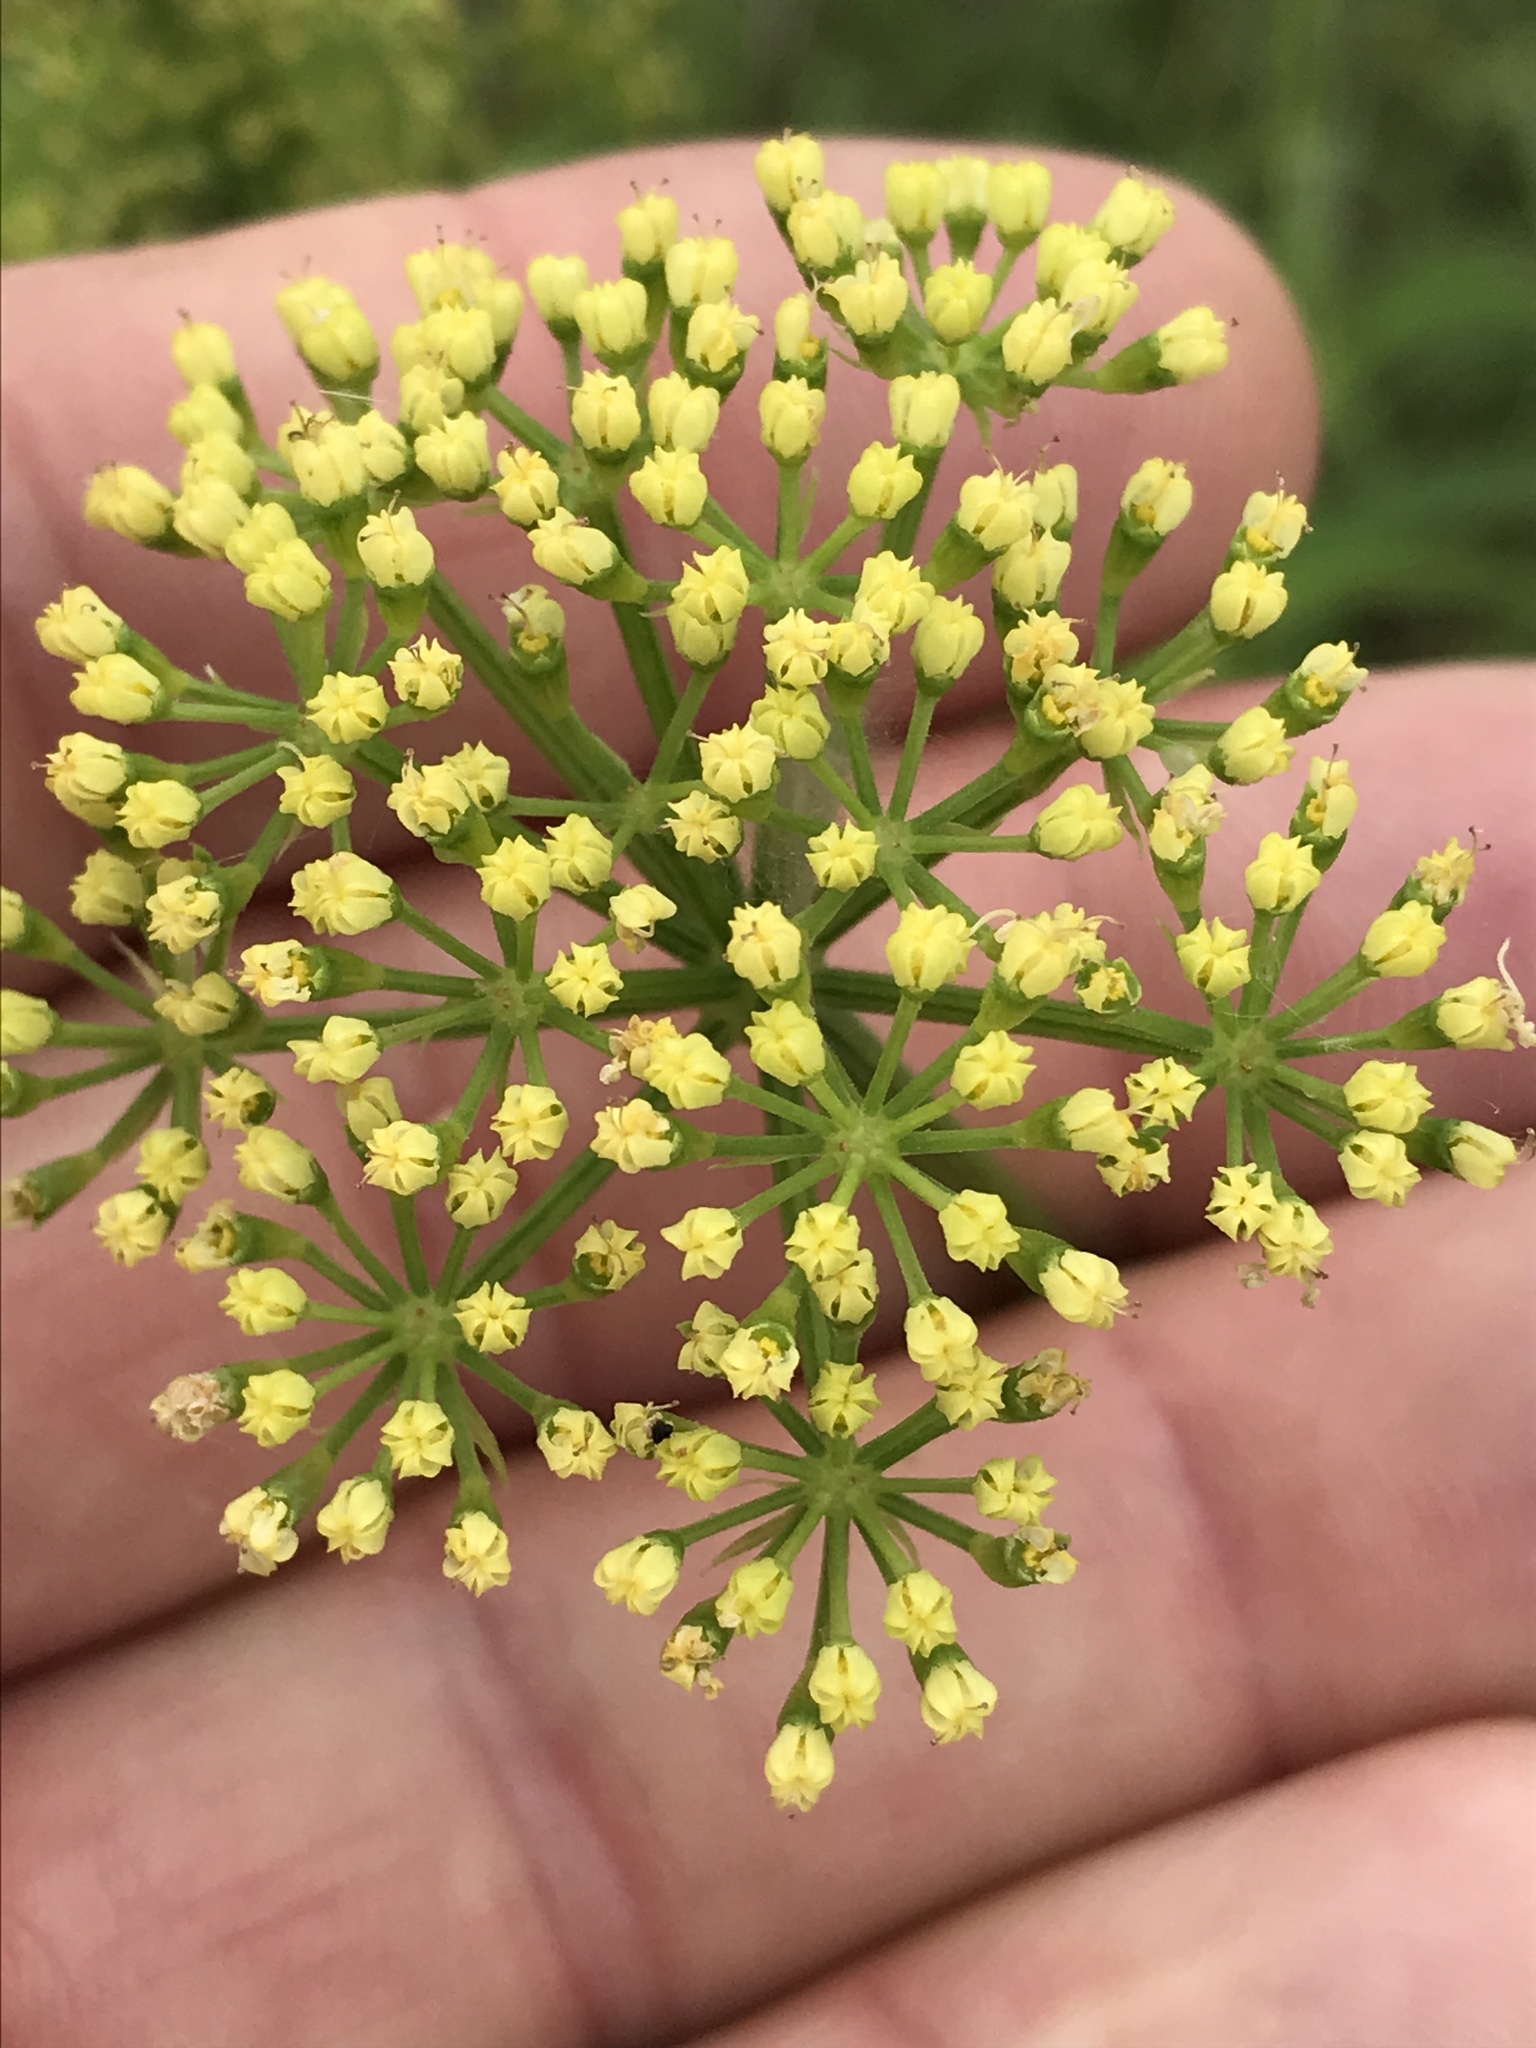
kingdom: Plantae
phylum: Tracheophyta
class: Magnoliopsida
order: Apiales
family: Apiaceae
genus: Polytaenia
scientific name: Polytaenia texana
